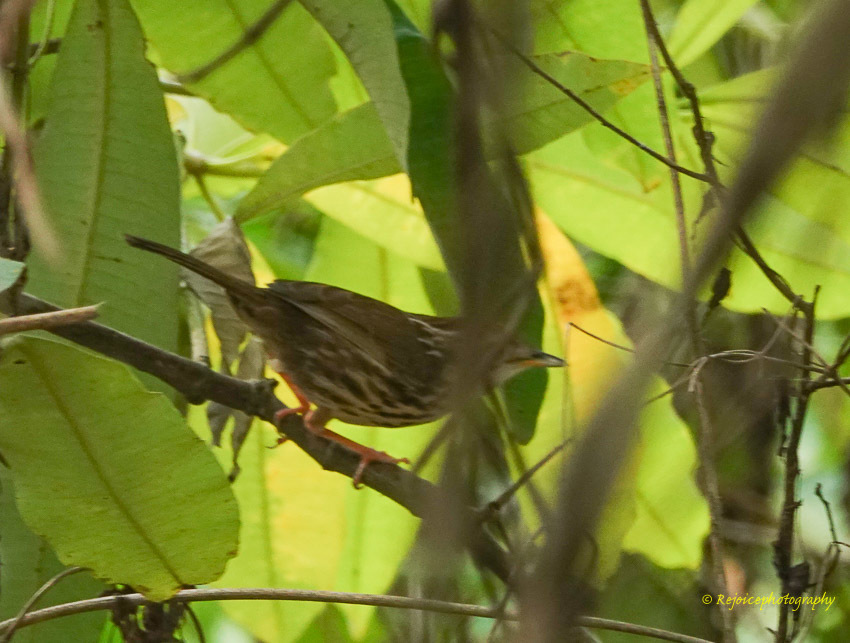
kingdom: Animalia
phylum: Chordata
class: Aves
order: Passeriformes
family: Pellorneidae
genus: Pellorneum
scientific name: Pellorneum ruficeps
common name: Puff-throated babbler
